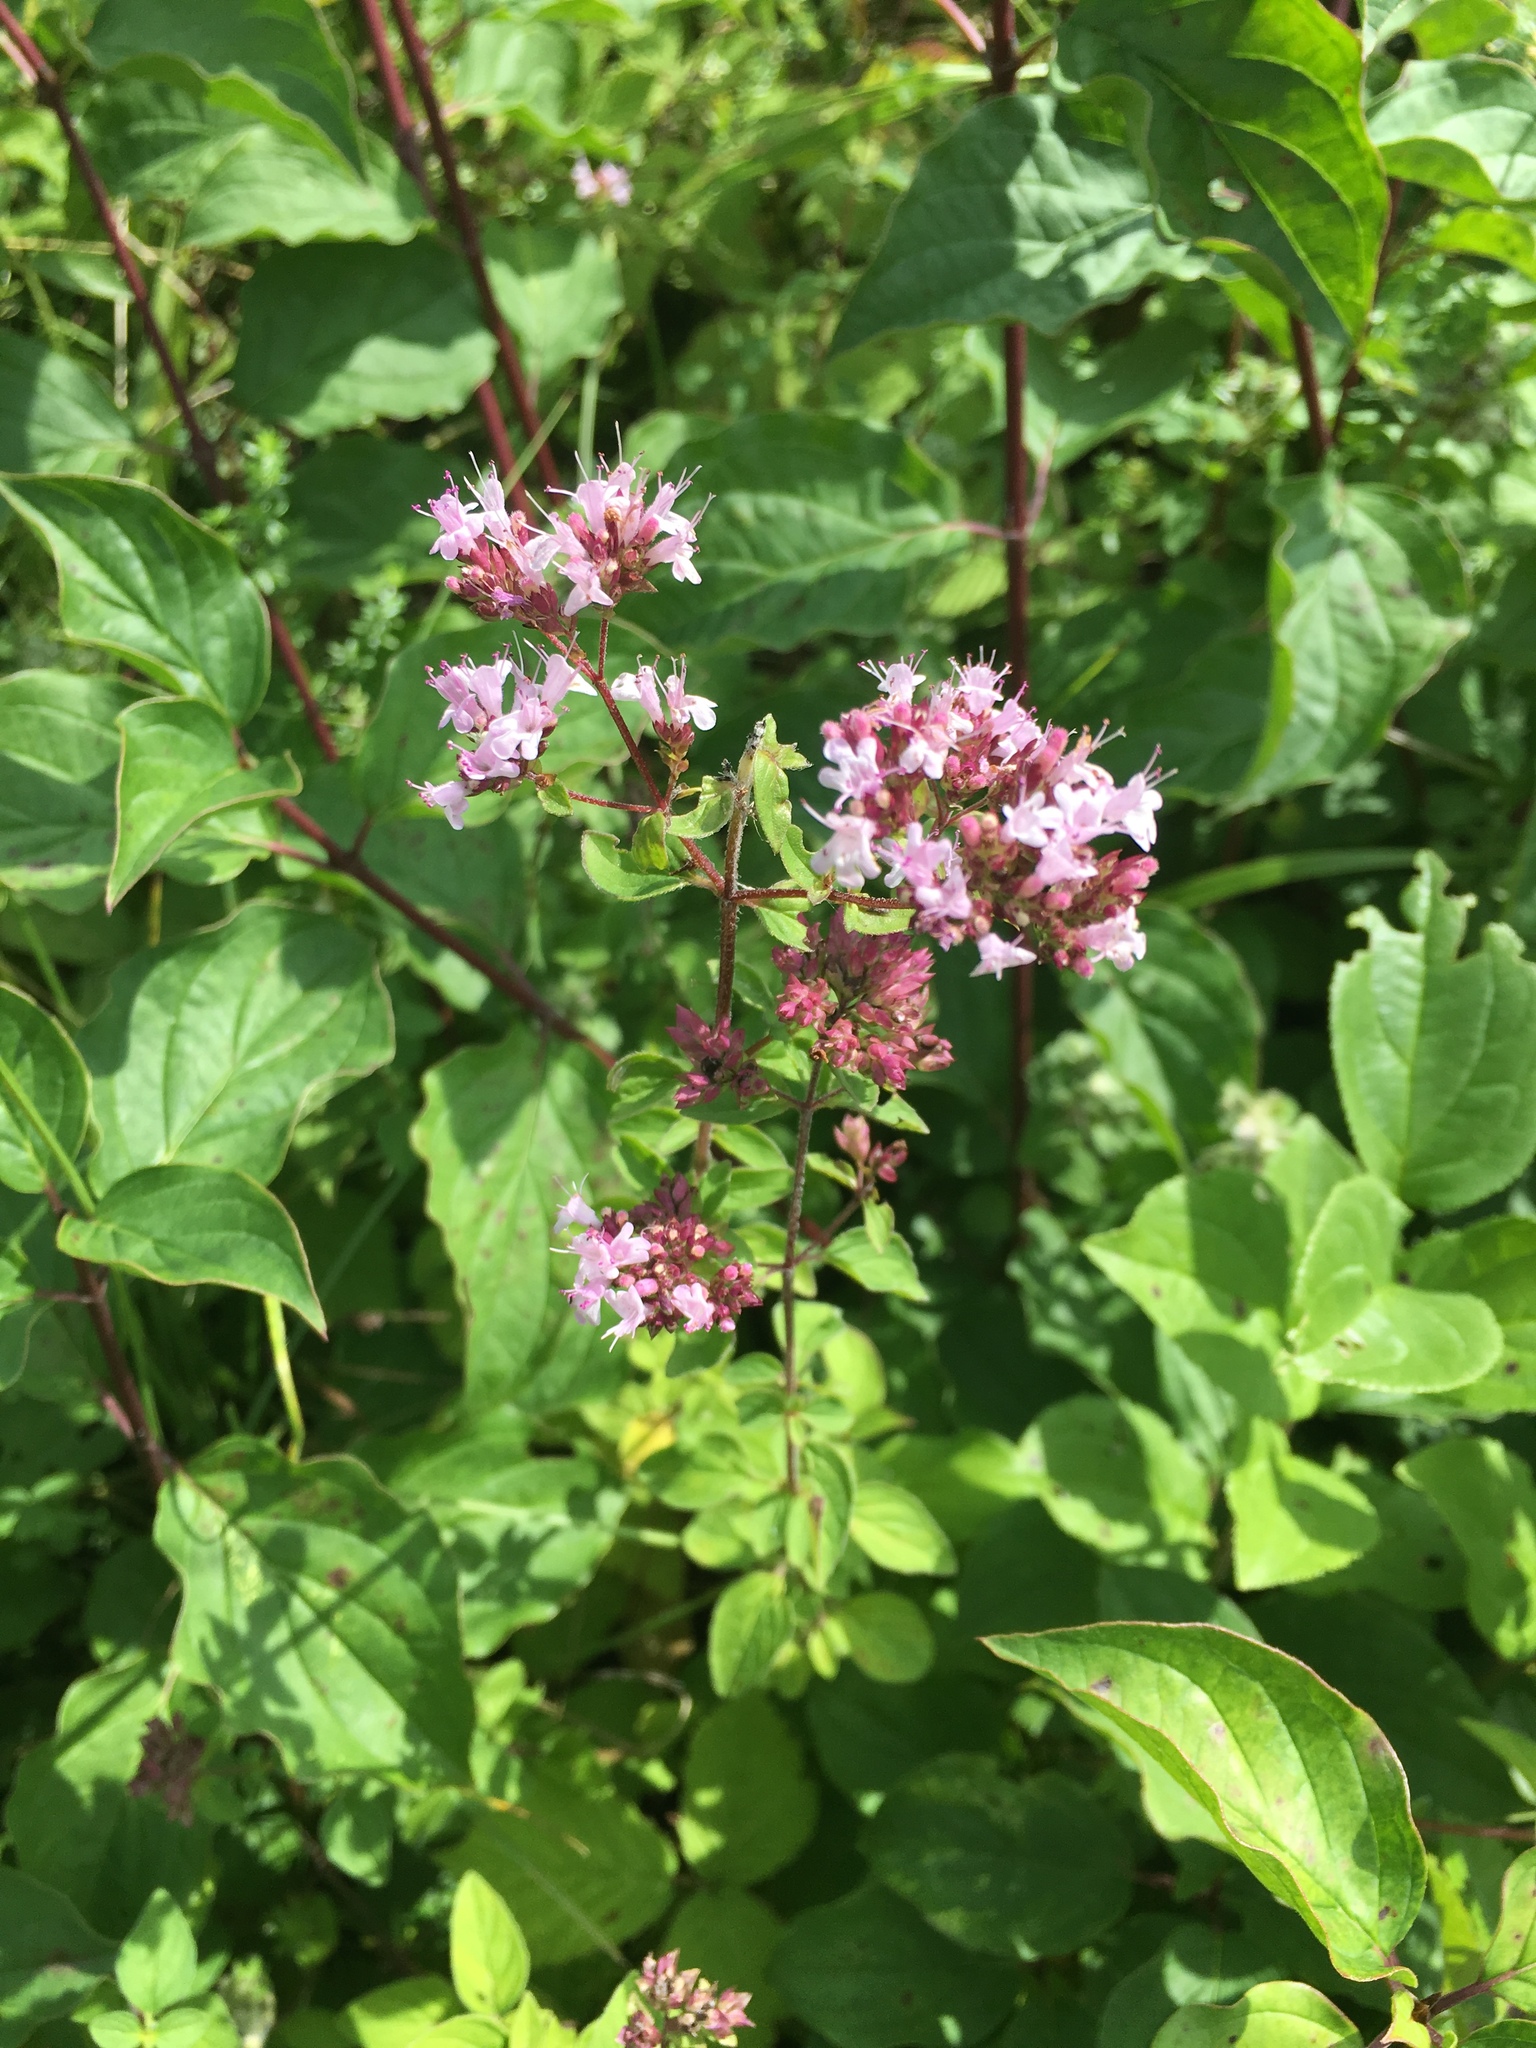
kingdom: Plantae
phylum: Tracheophyta
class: Magnoliopsida
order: Lamiales
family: Lamiaceae
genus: Origanum
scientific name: Origanum vulgare
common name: Wild marjoram
